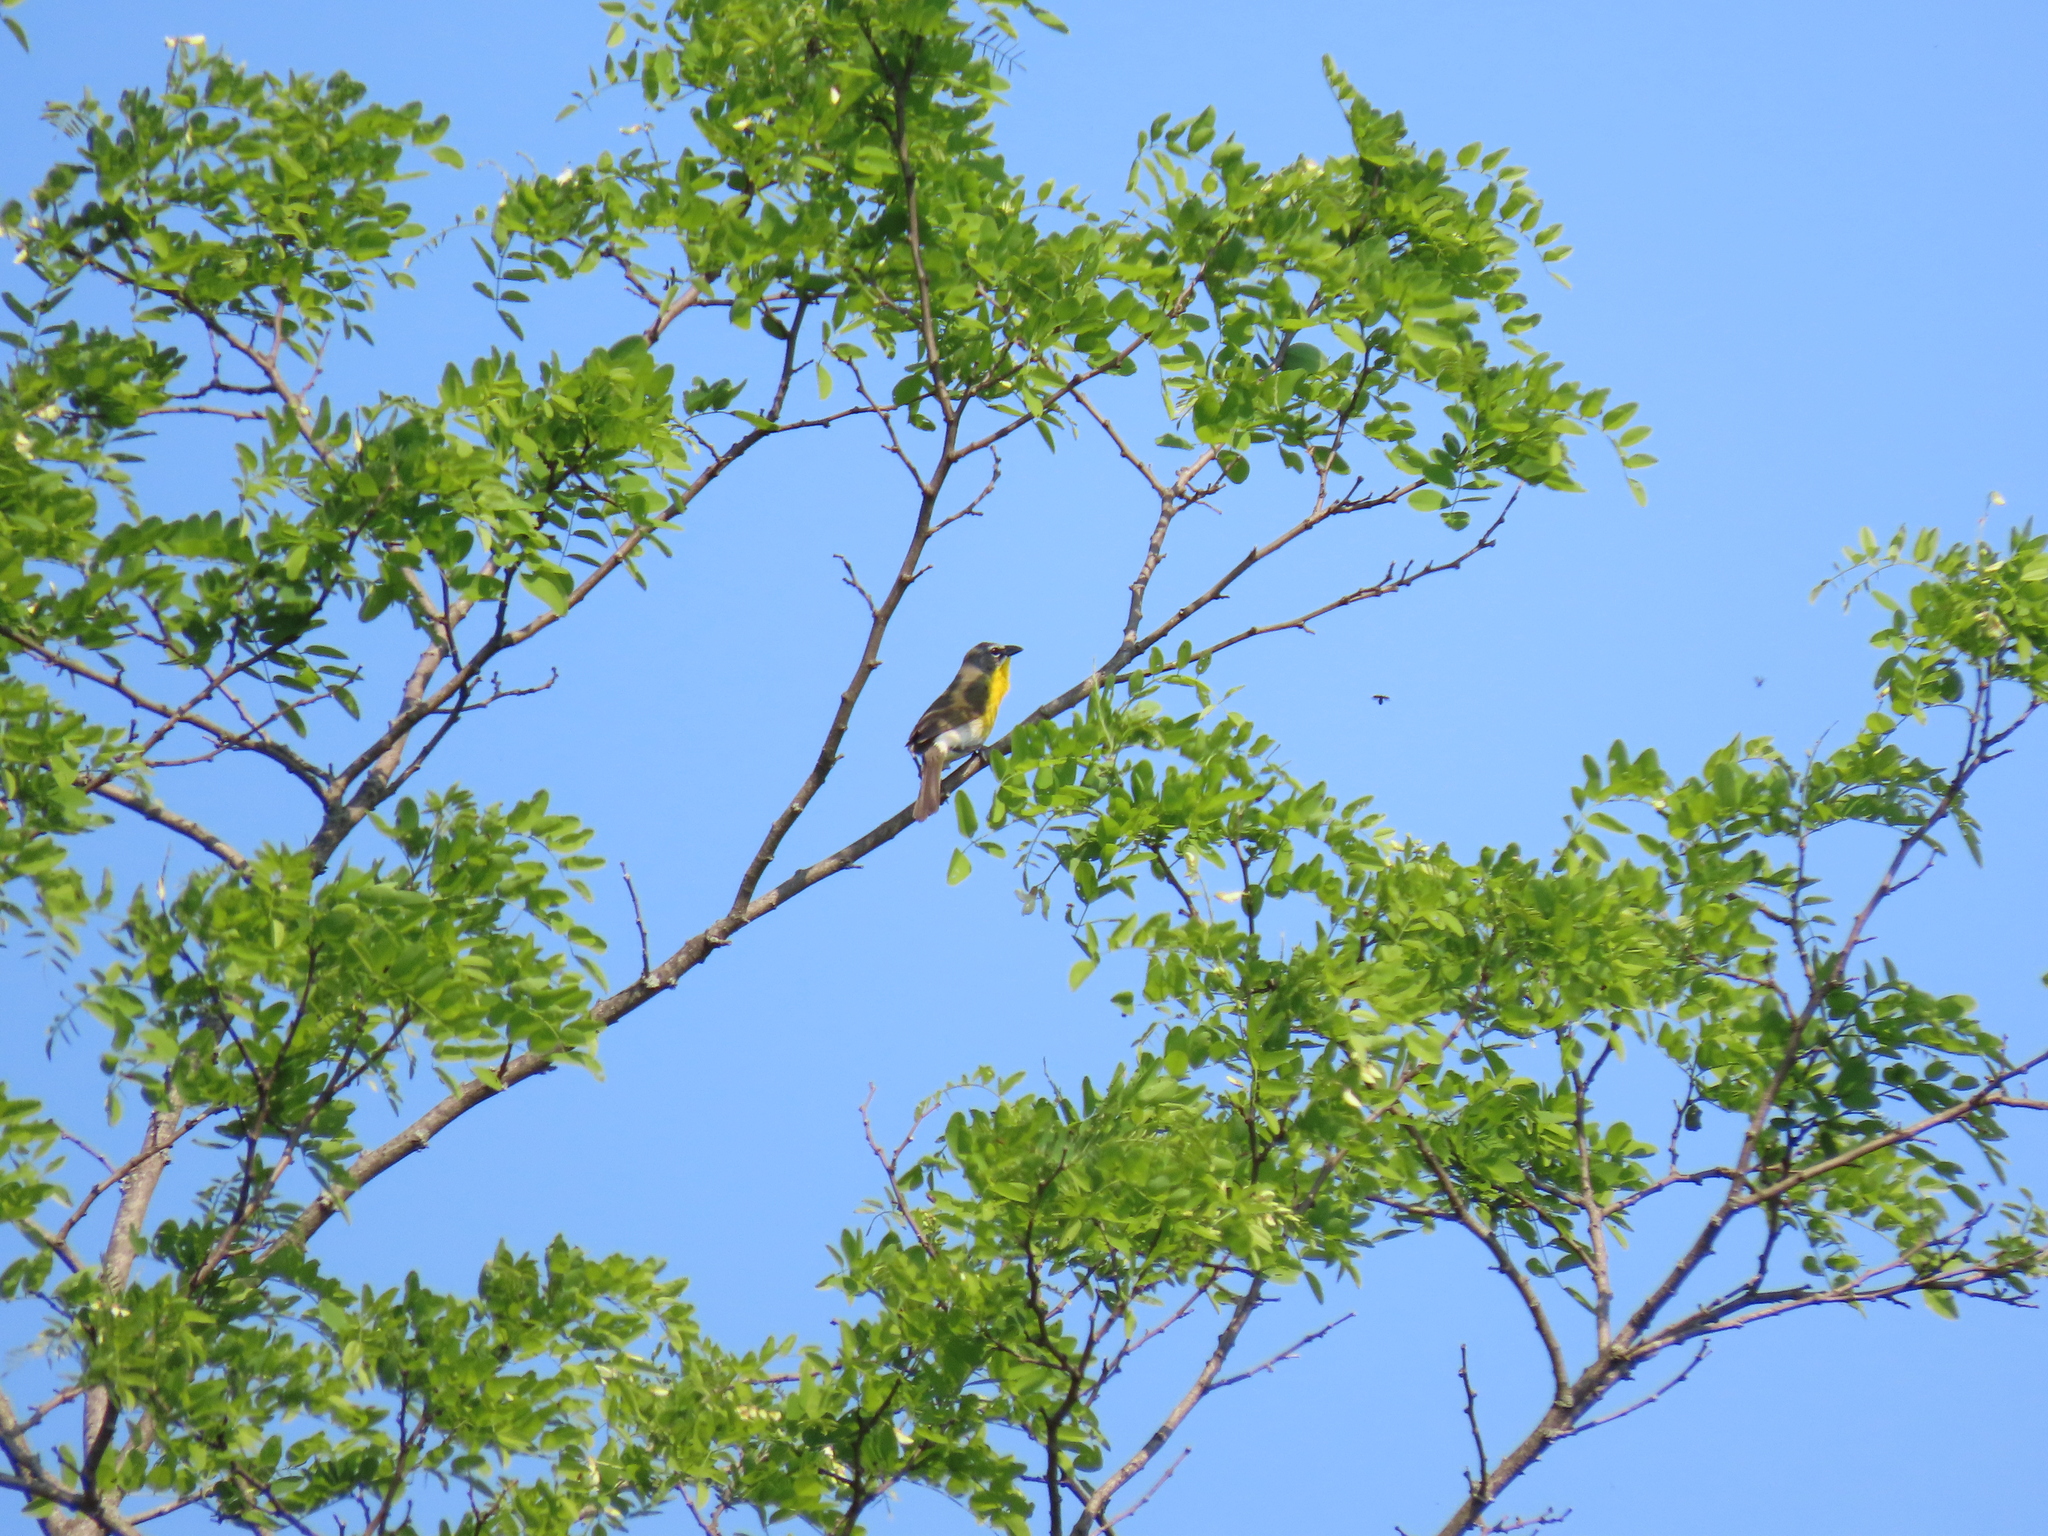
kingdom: Animalia
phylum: Chordata
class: Aves
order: Passeriformes
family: Parulidae
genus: Icteria
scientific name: Icteria virens
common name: Yellow-breasted chat
